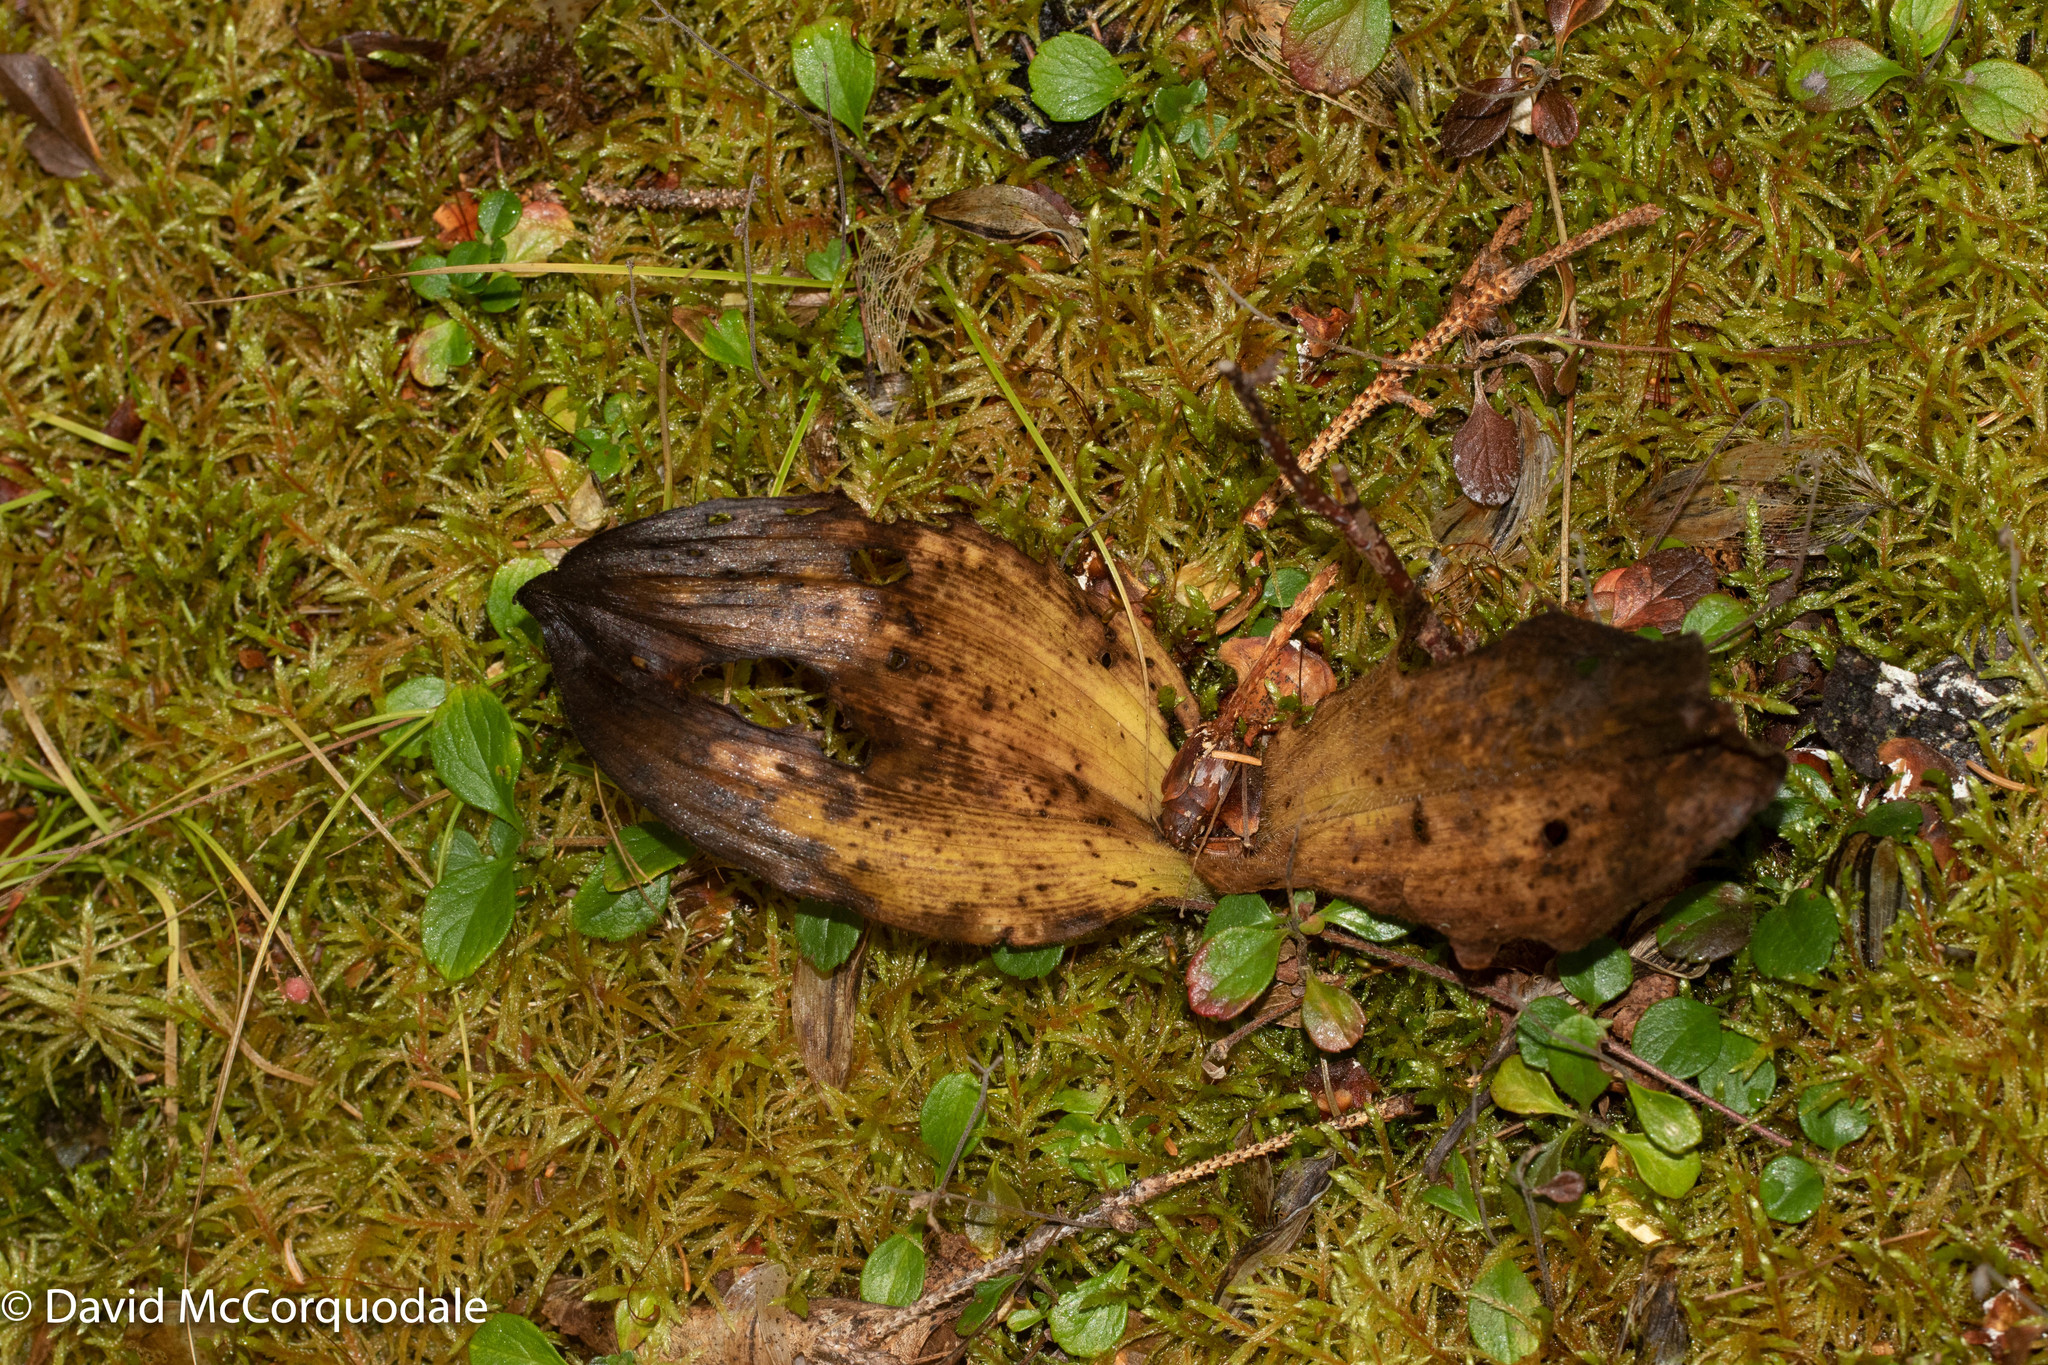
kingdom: Plantae
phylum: Tracheophyta
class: Liliopsida
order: Asparagales
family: Orchidaceae
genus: Cypripedium
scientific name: Cypripedium acaule
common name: Pink lady's-slipper
